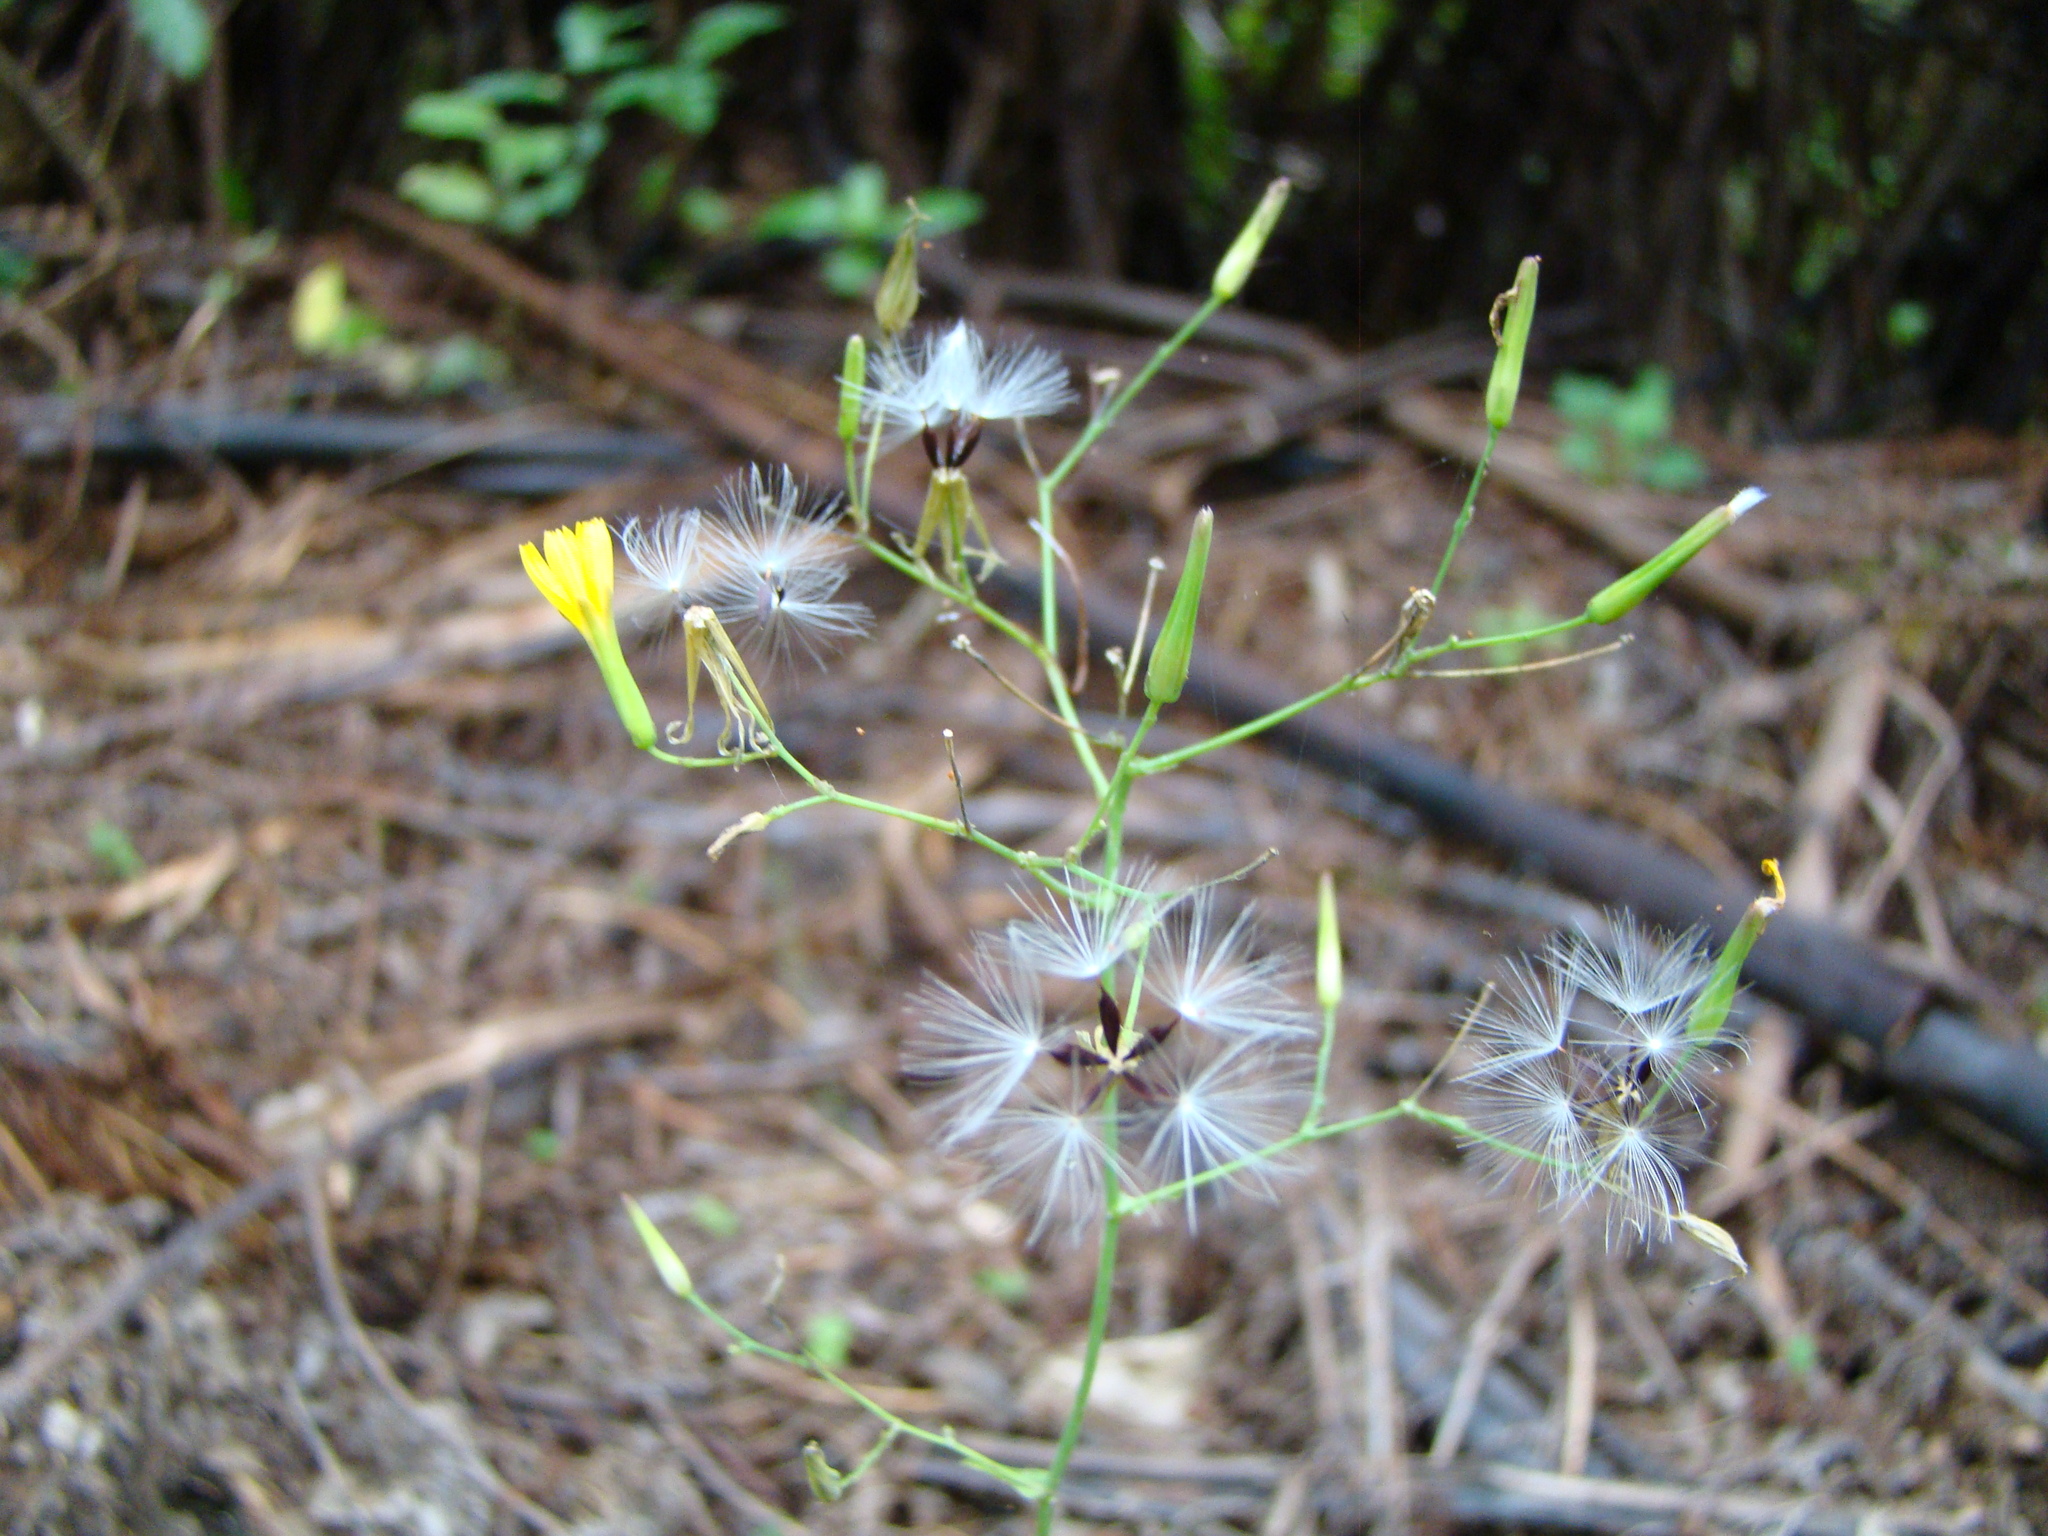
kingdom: Plantae
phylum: Tracheophyta
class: Magnoliopsida
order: Asterales
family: Asteraceae
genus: Mycelis
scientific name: Mycelis muralis
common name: Wall lettuce
